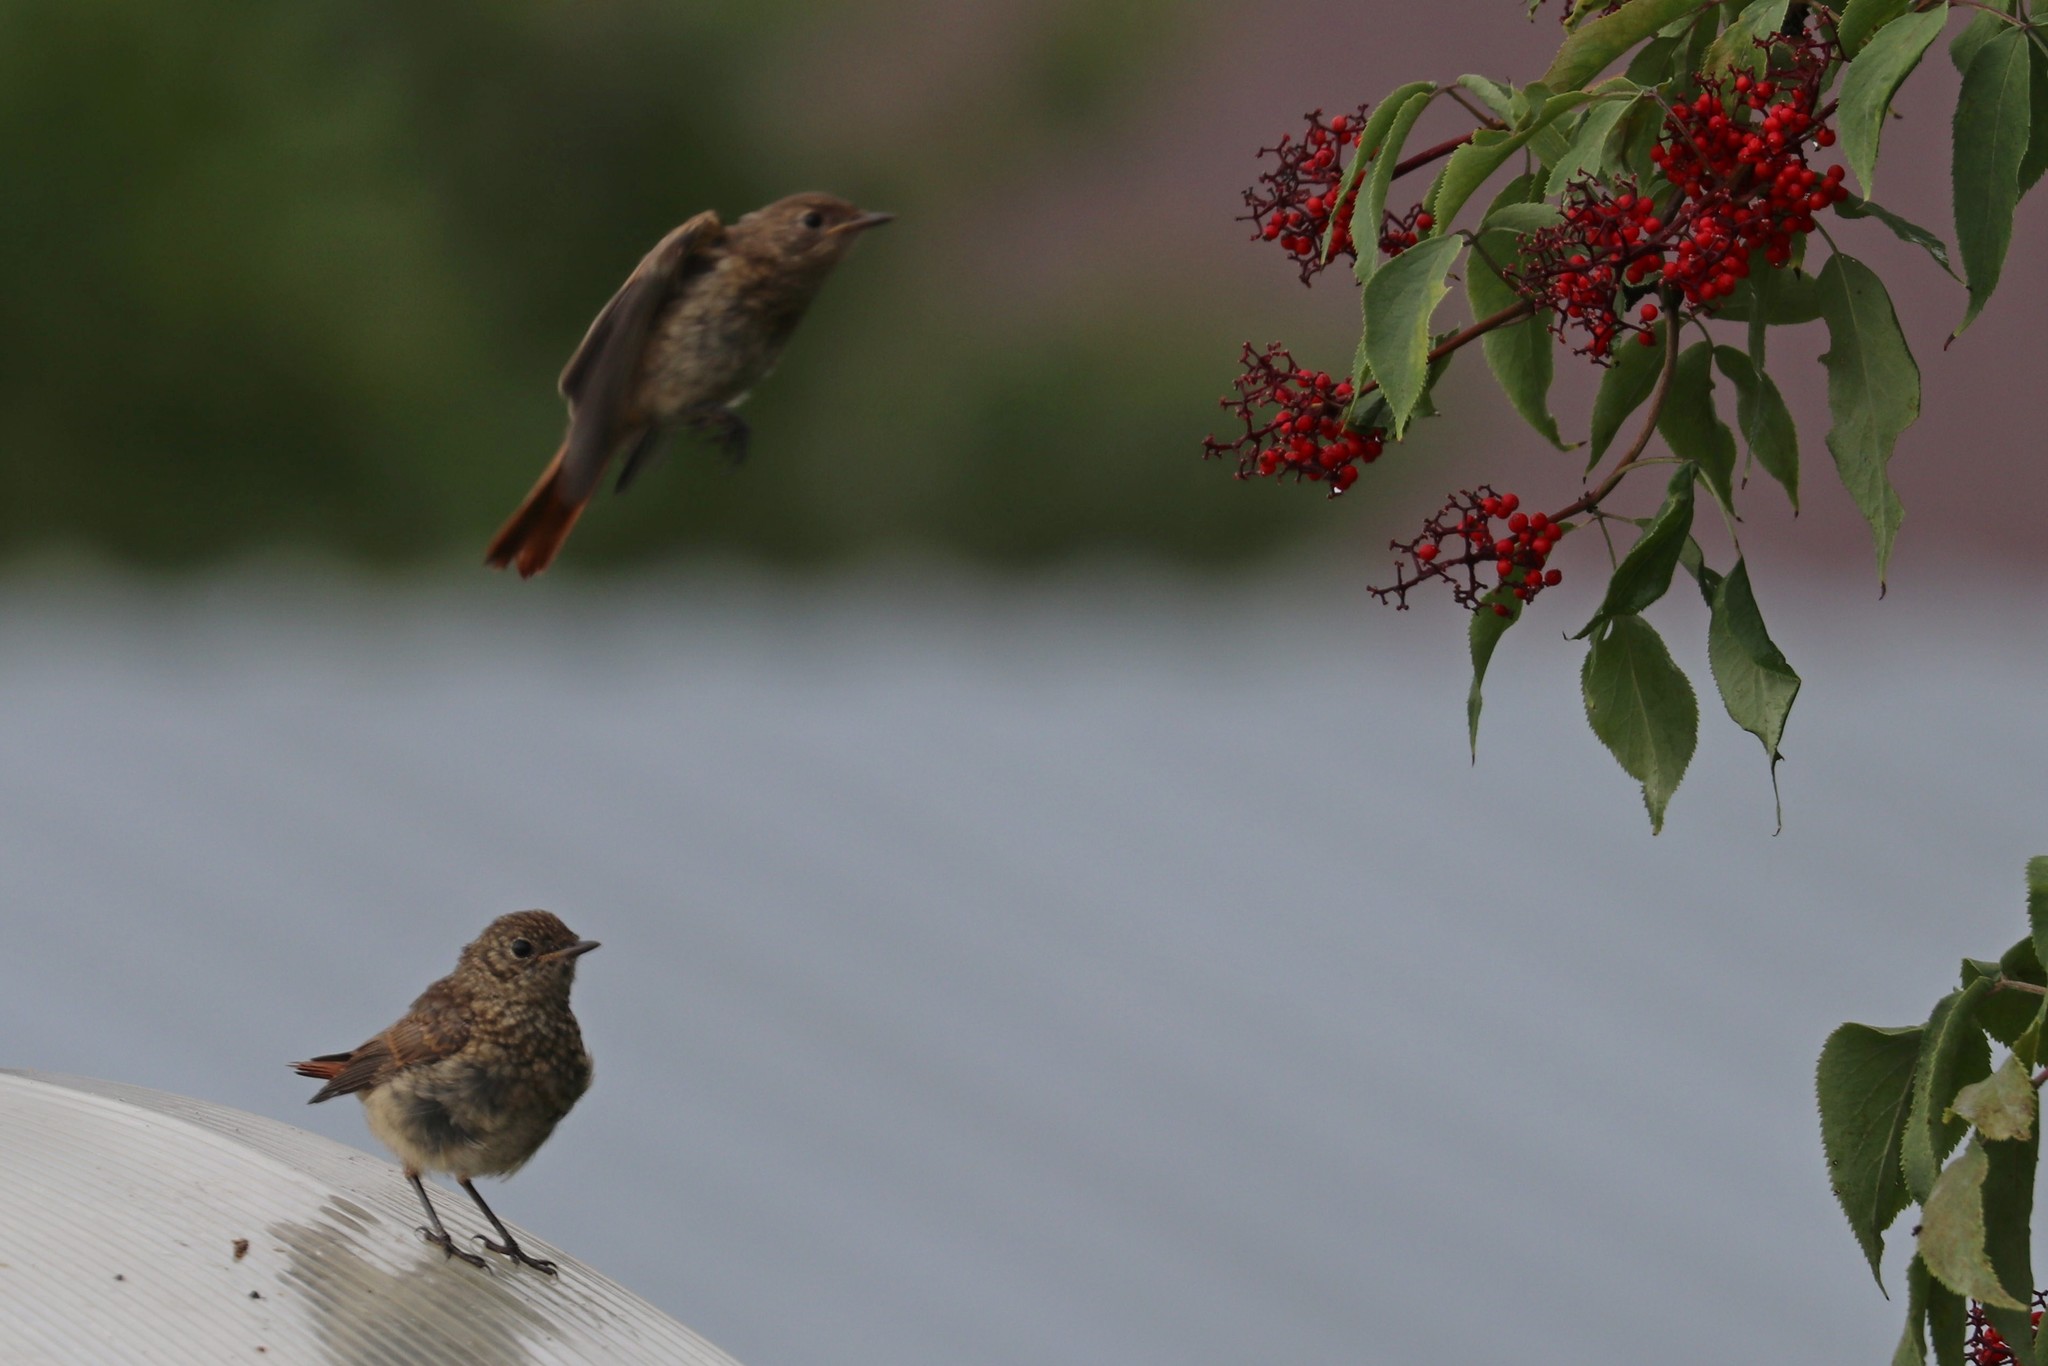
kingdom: Animalia
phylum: Chordata
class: Aves
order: Passeriformes
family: Muscicapidae
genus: Phoenicurus
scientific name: Phoenicurus phoenicurus
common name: Common redstart
